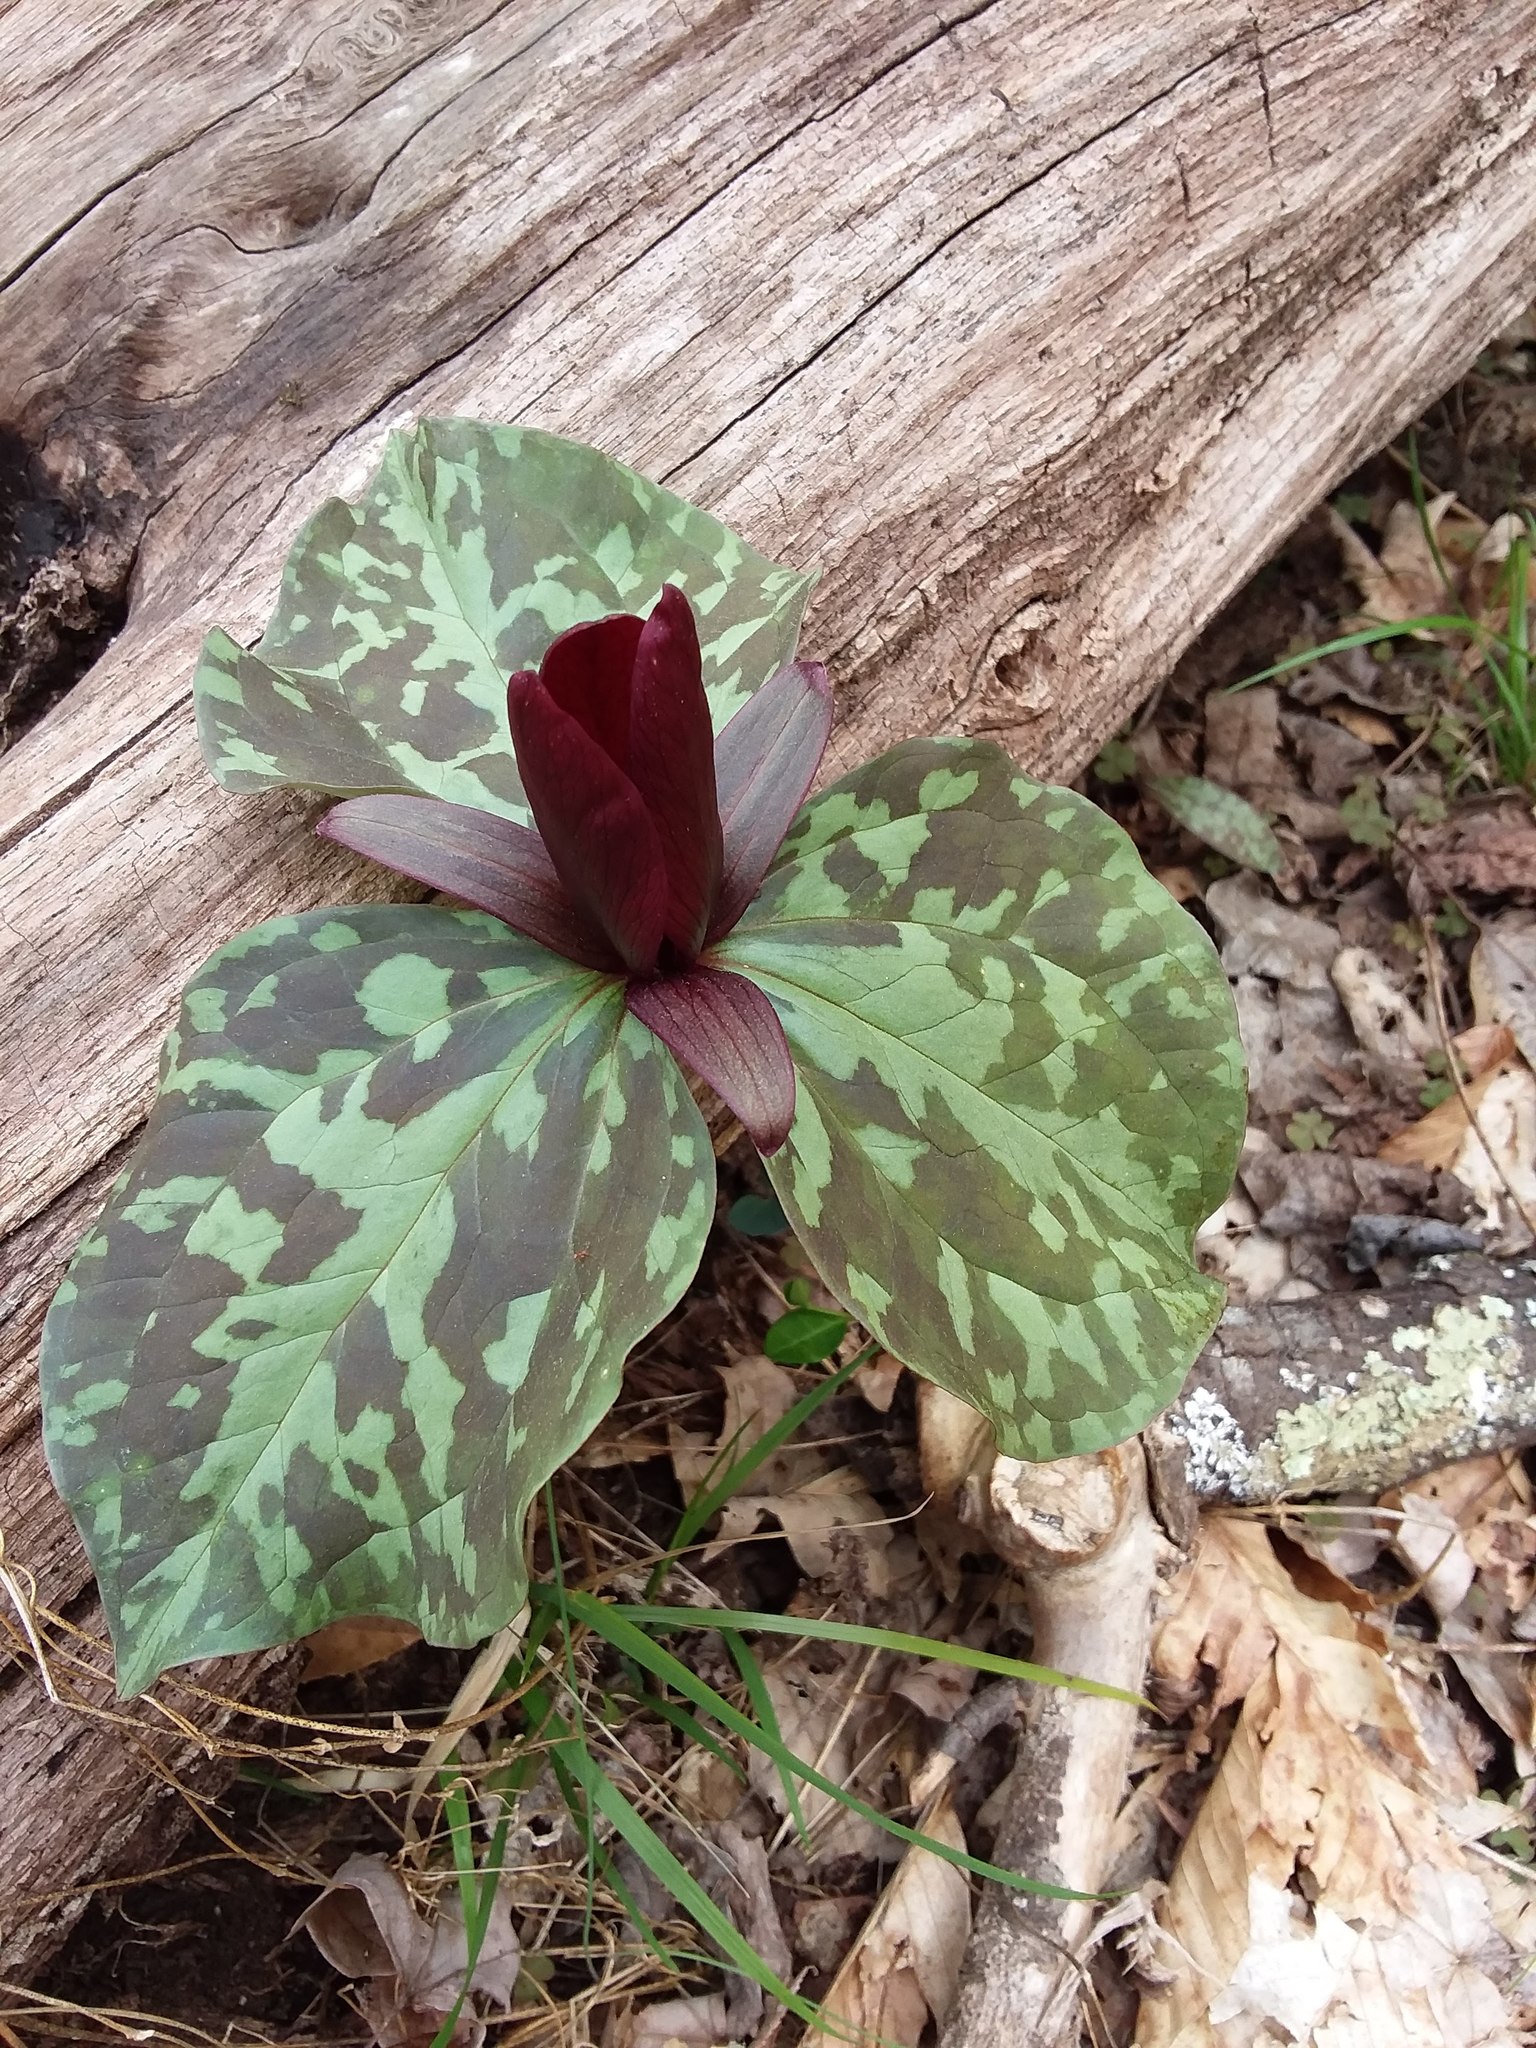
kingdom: Plantae
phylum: Tracheophyta
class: Liliopsida
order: Liliales
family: Melanthiaceae
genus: Trillium
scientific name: Trillium cuneatum
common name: Cuneate trillium
